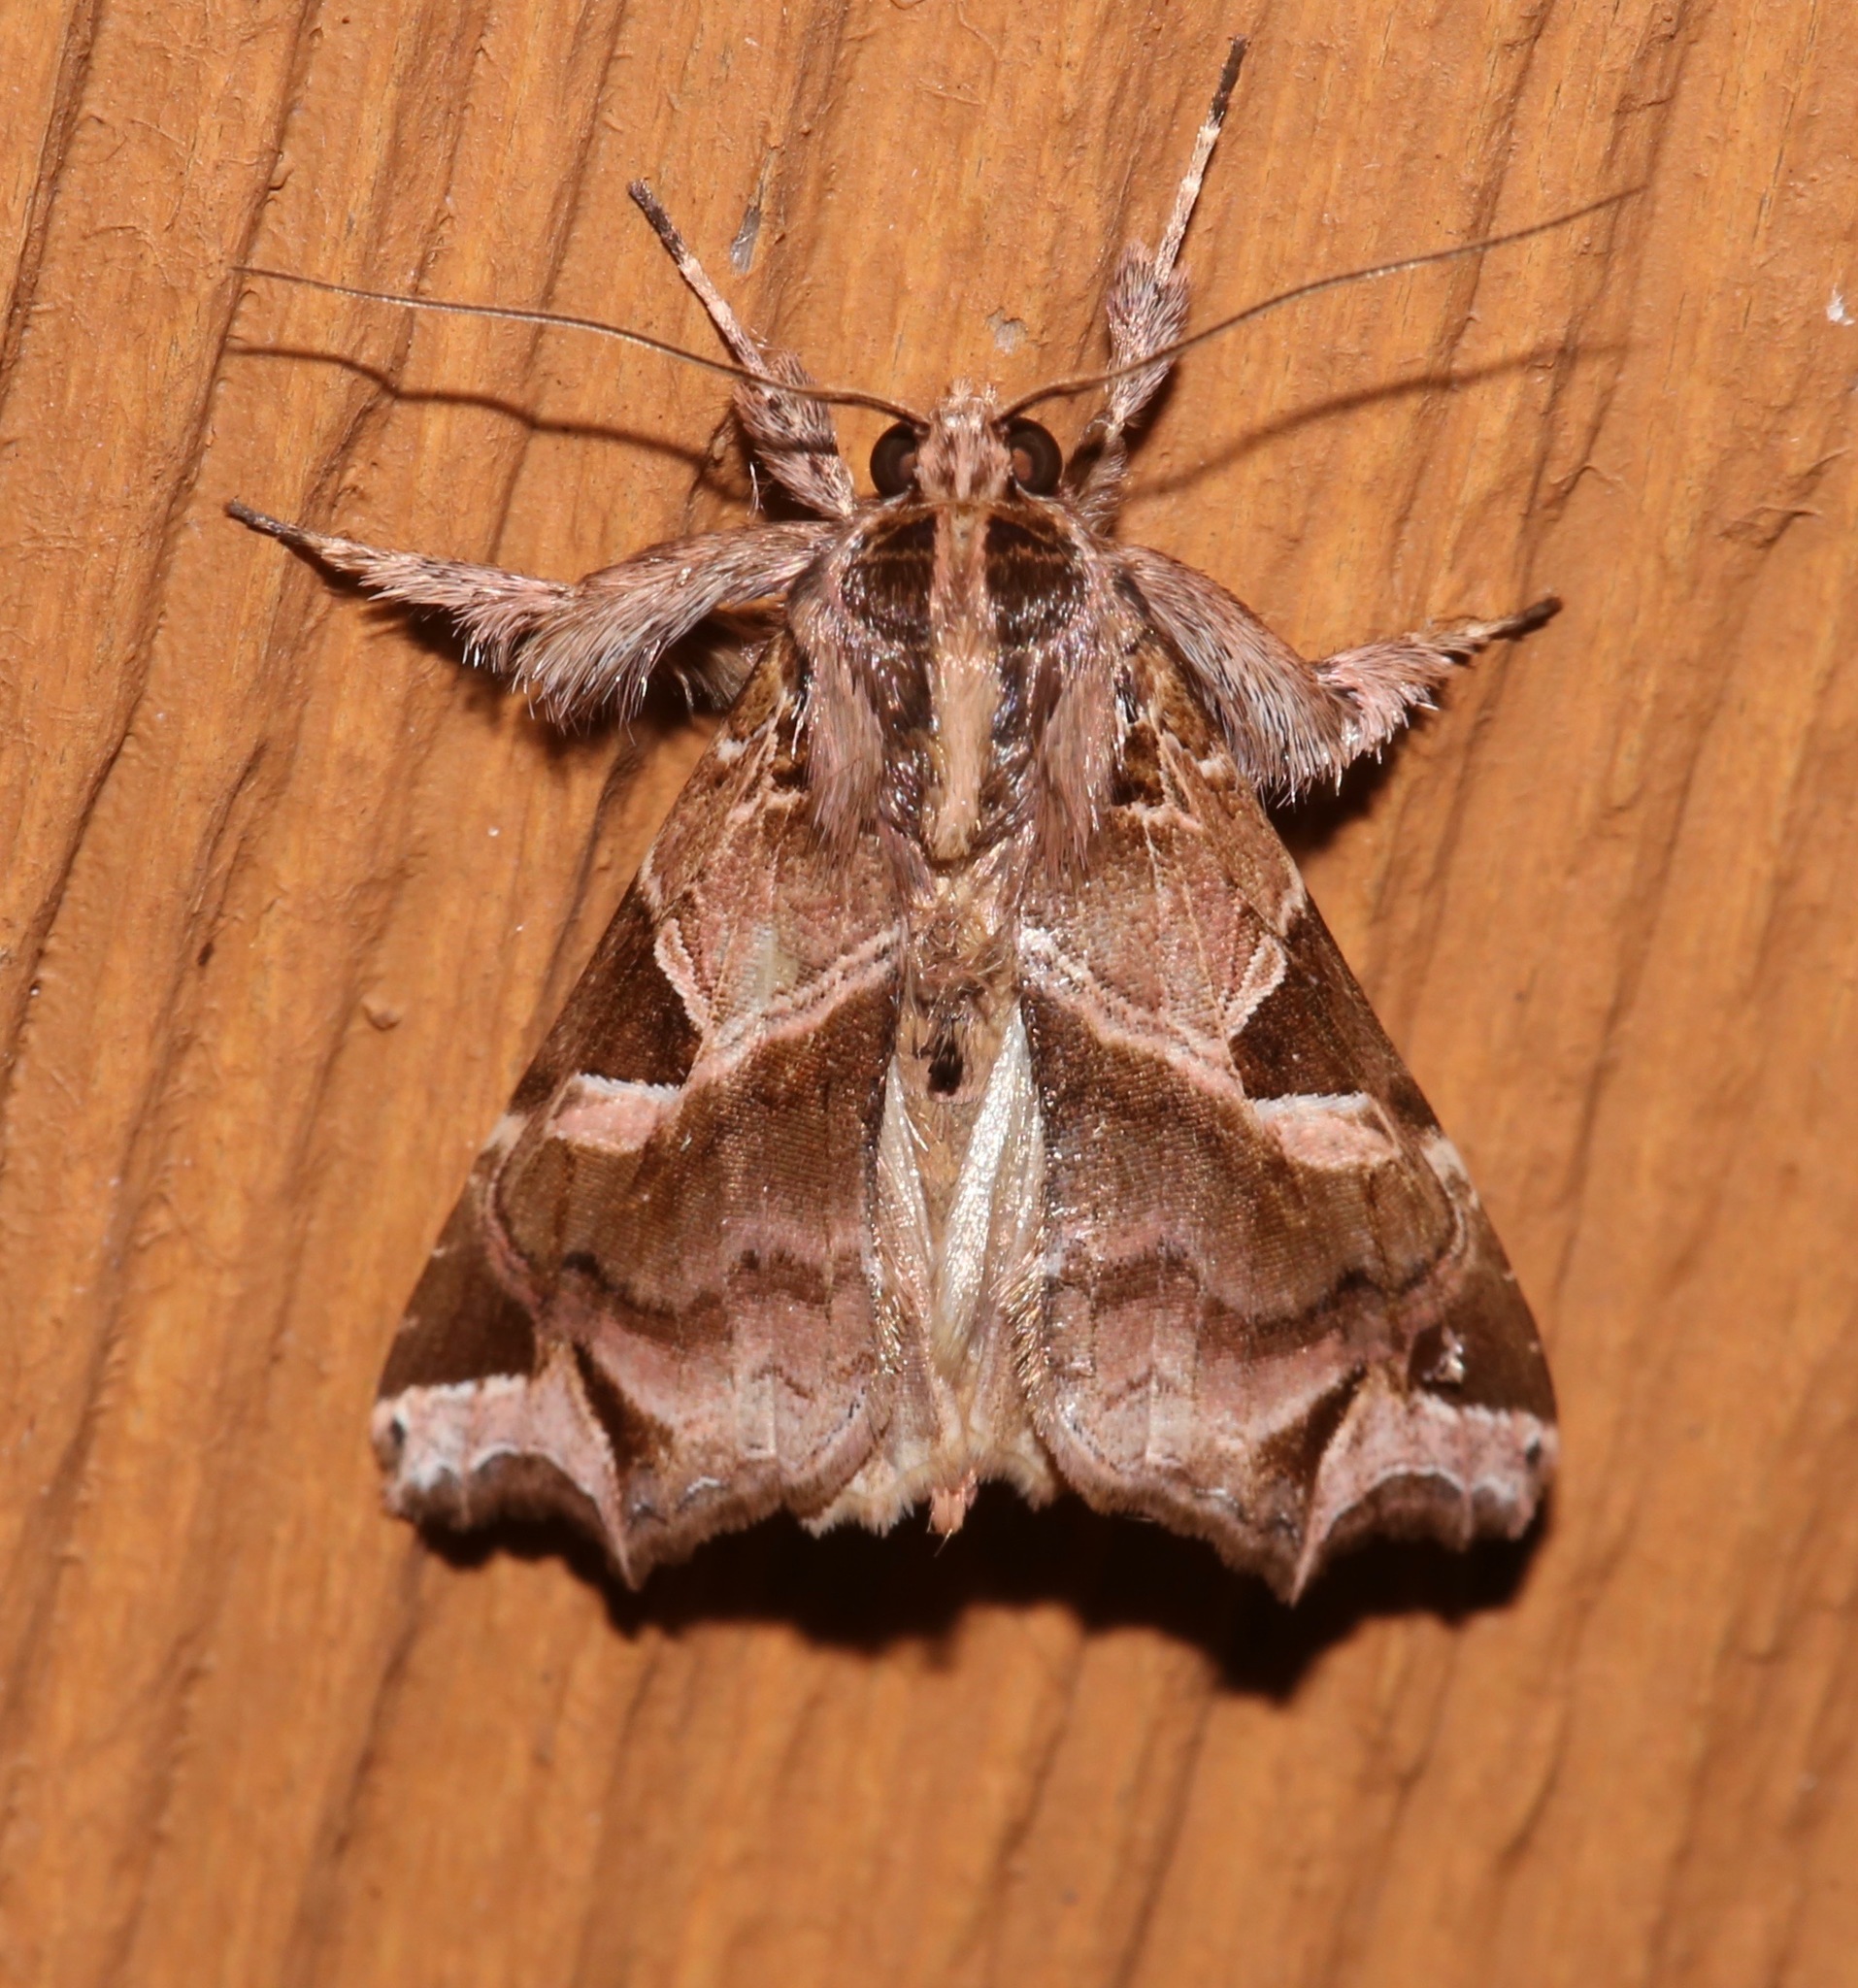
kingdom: Animalia
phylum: Arthropoda
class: Insecta
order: Lepidoptera
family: Noctuidae
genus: Callopistria
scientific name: Callopistria floridensis
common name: Florida fern moth
